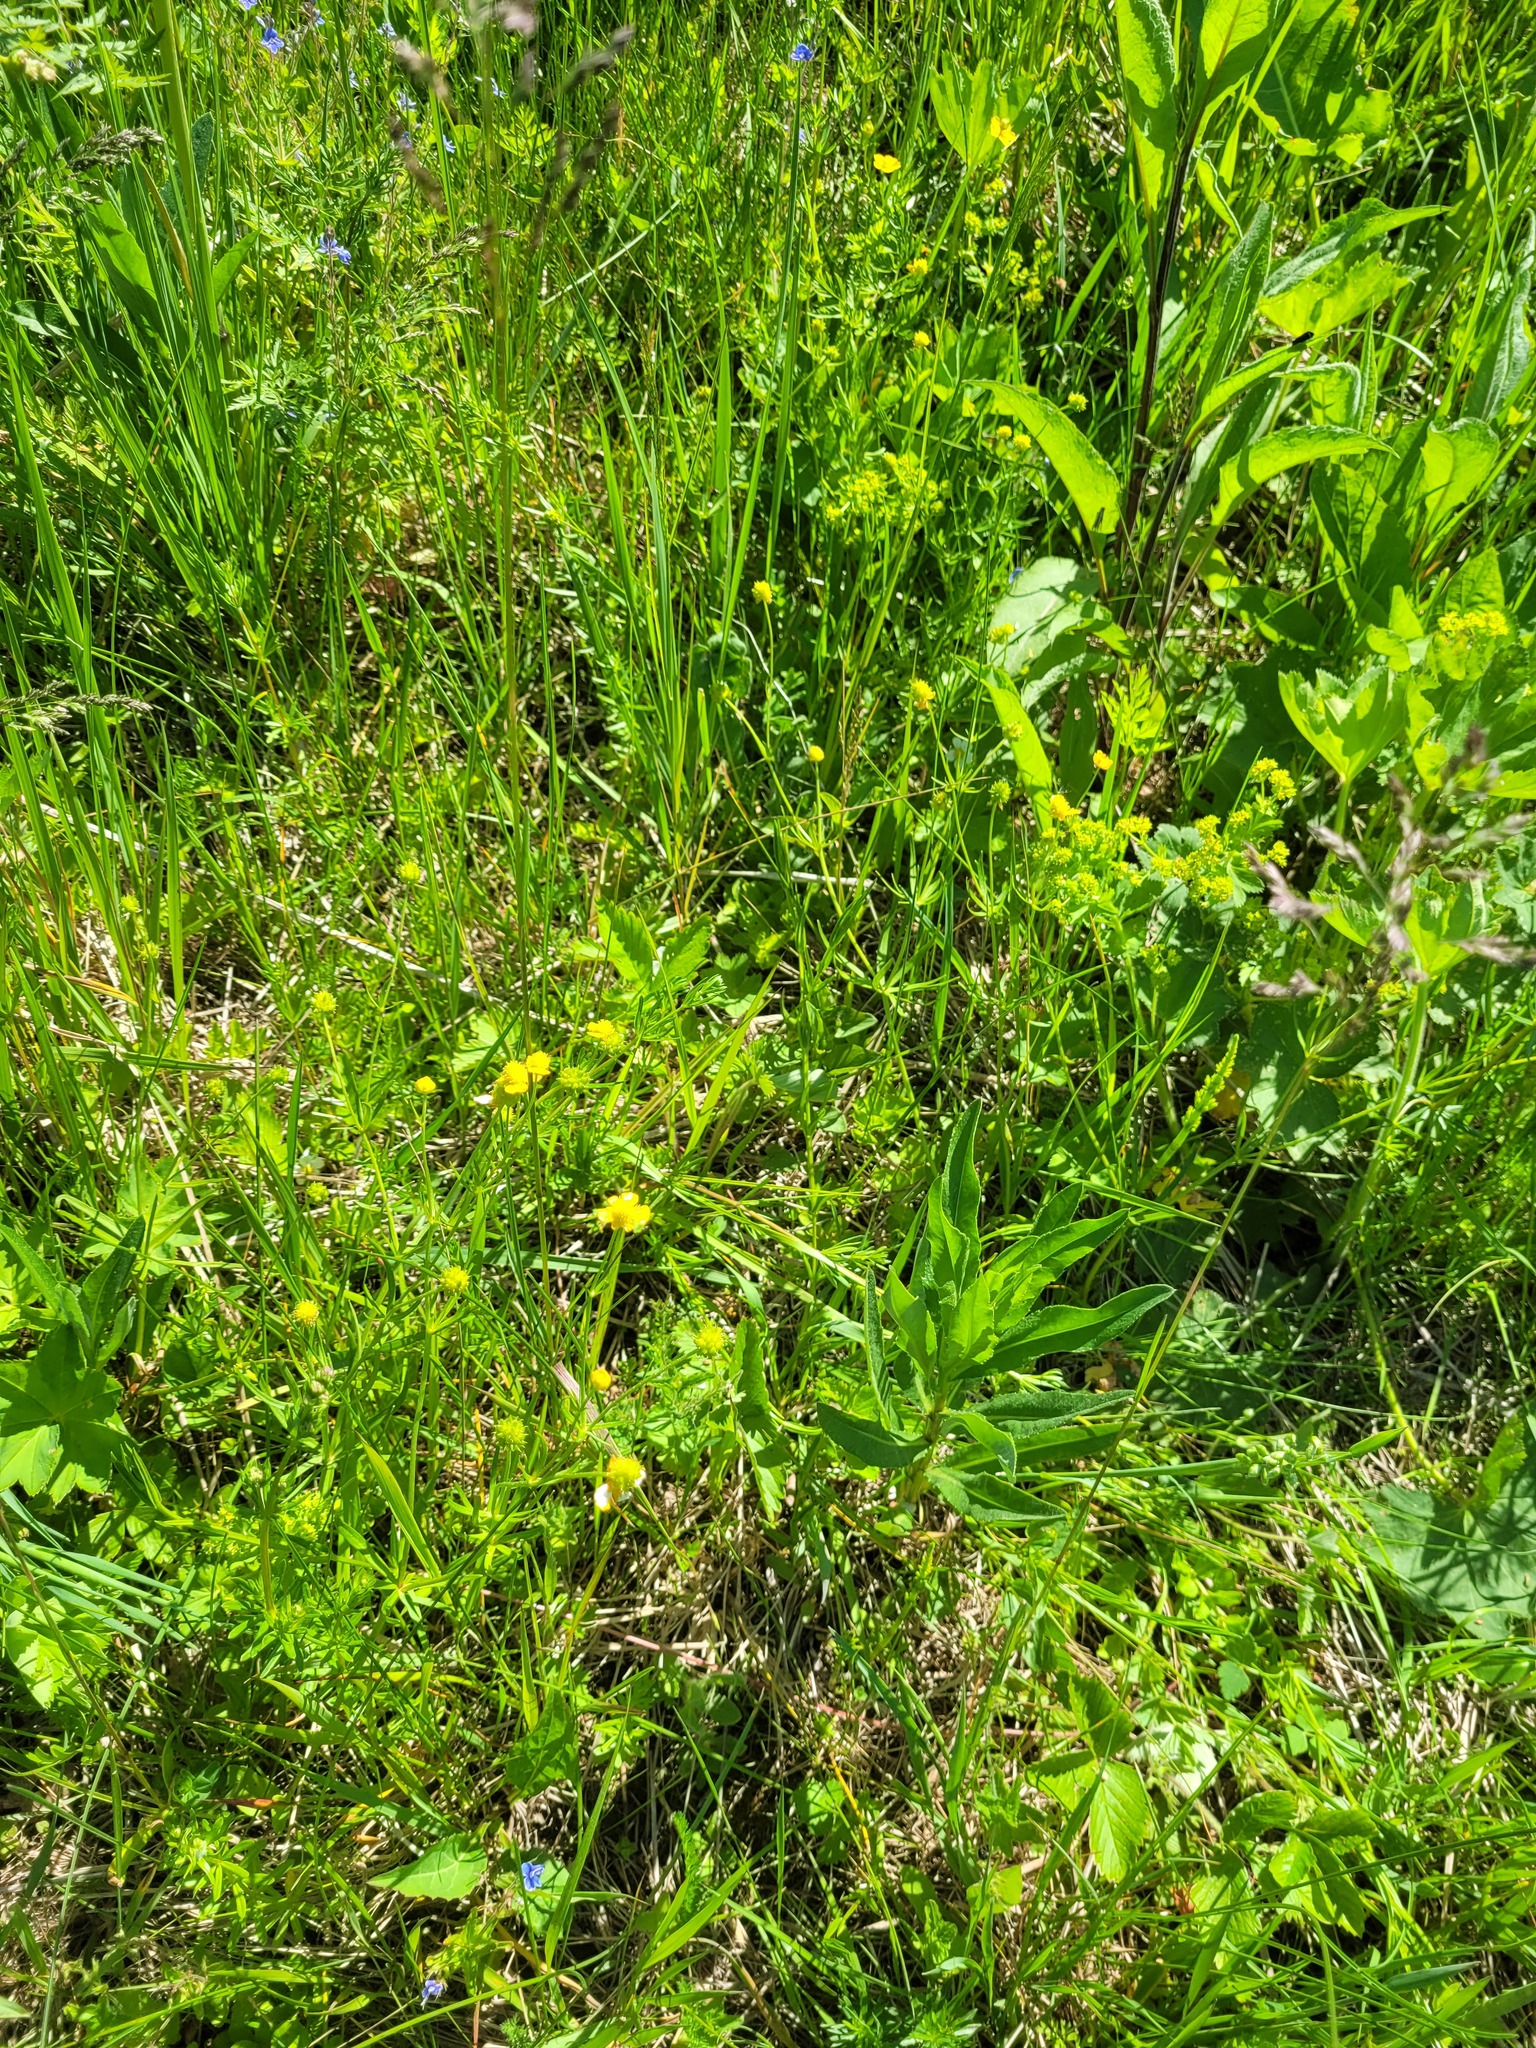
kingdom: Plantae
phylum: Tracheophyta
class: Magnoliopsida
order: Ranunculales
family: Ranunculaceae
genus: Ranunculus
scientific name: Ranunculus auricomus
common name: Goldilocks buttercup
